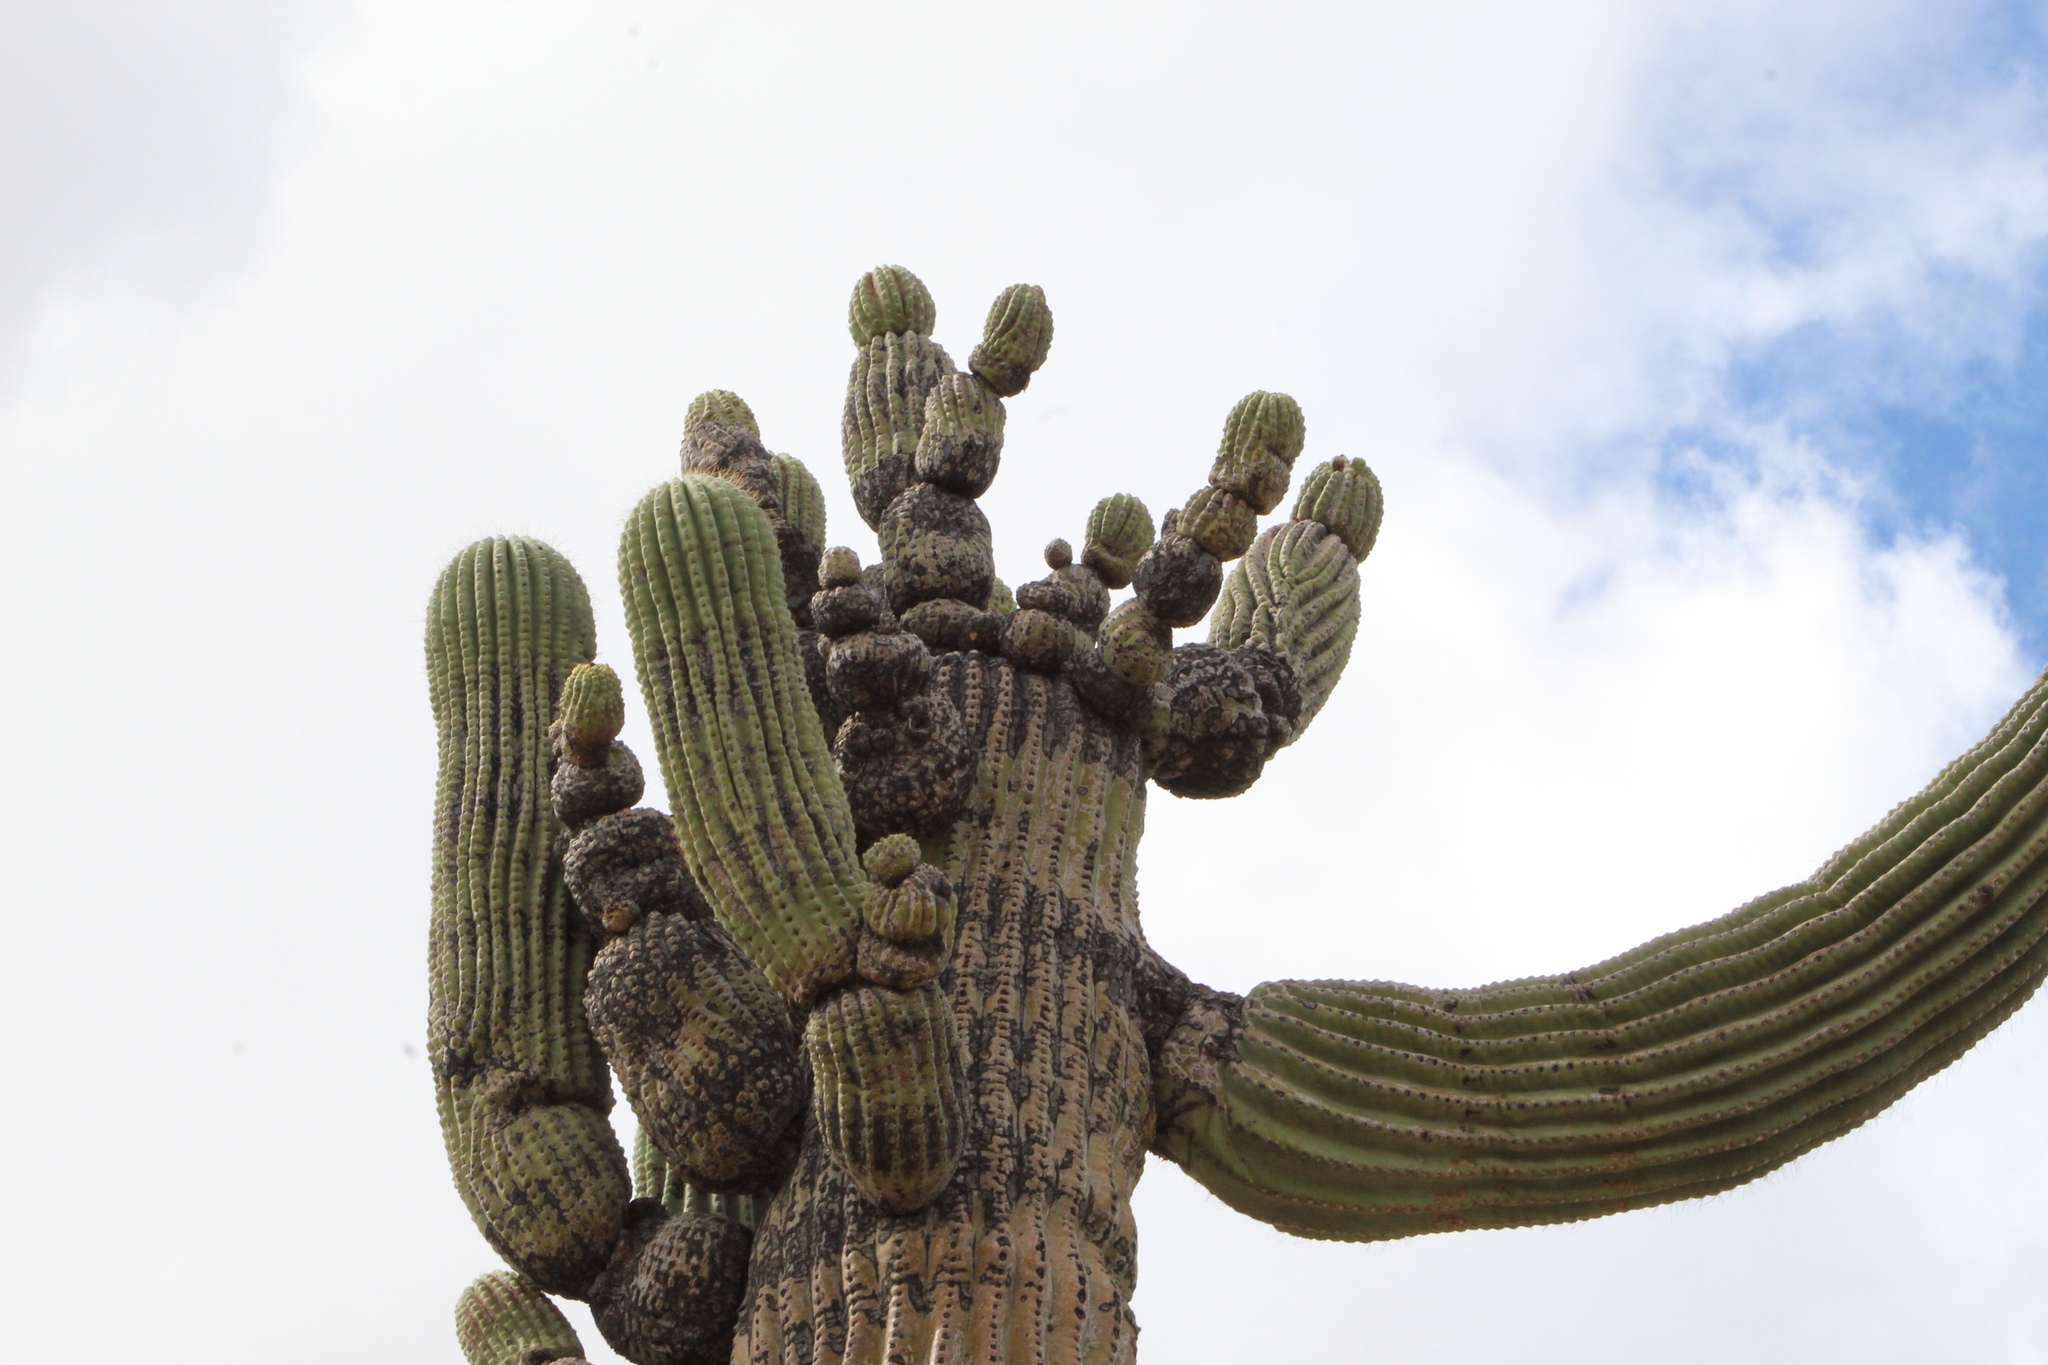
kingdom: Plantae
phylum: Tracheophyta
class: Magnoliopsida
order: Caryophyllales
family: Cactaceae
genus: Carnegiea
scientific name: Carnegiea gigantea
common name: Saguaro
